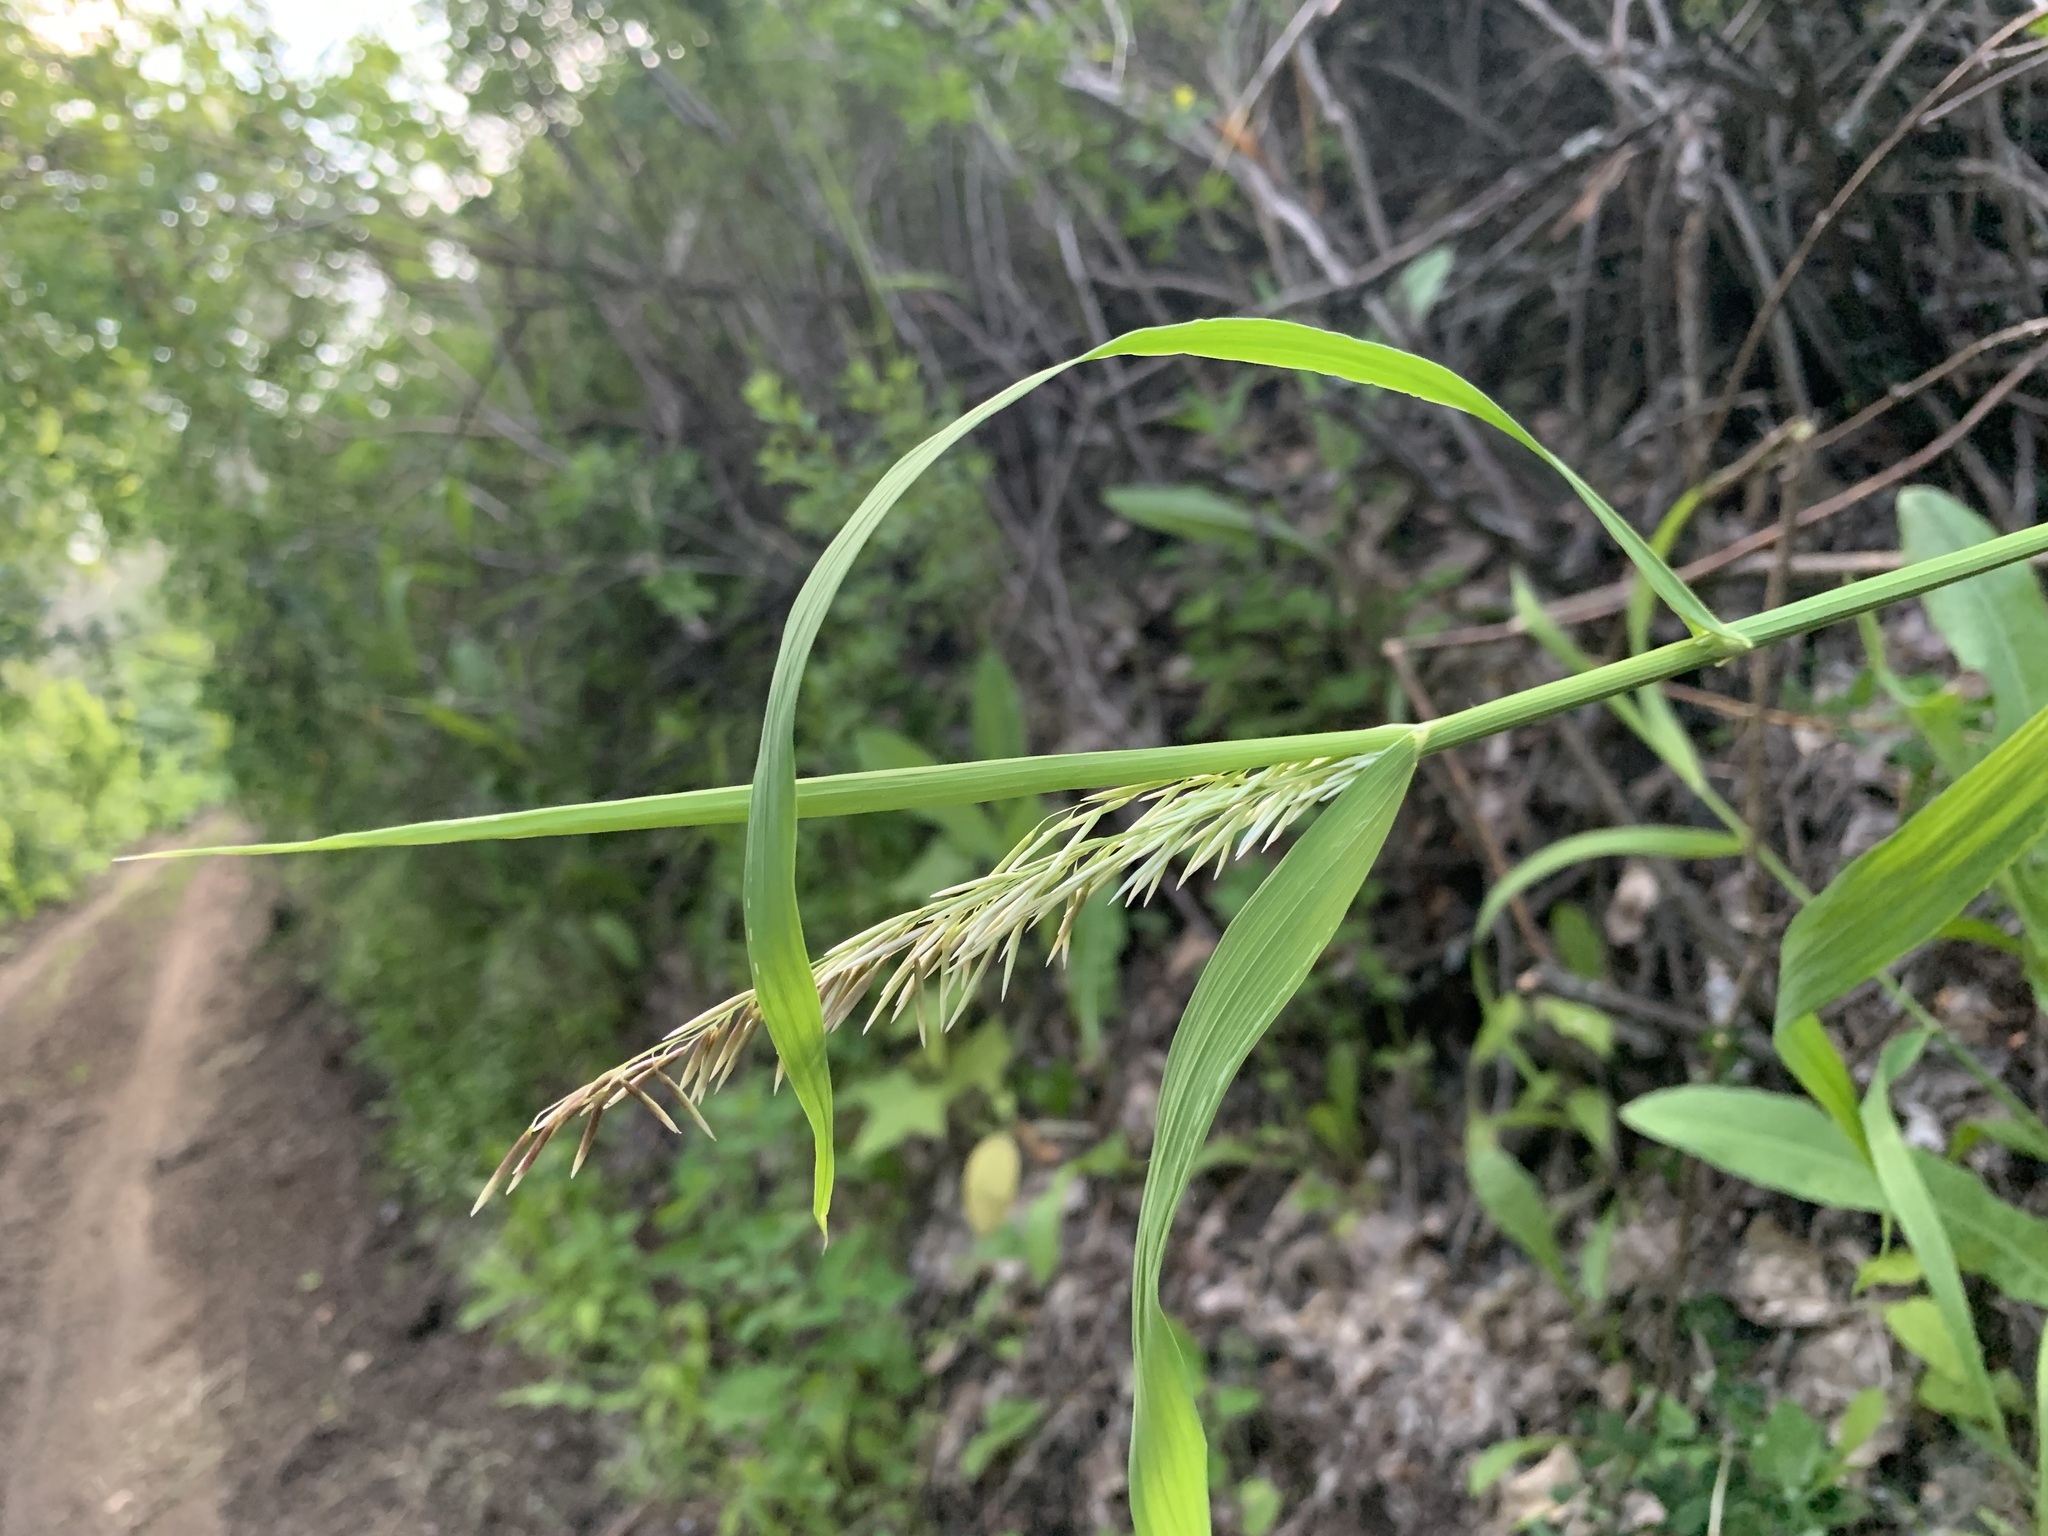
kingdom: Plantae
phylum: Tracheophyta
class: Liliopsida
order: Poales
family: Poaceae
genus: Melica
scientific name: Melica altissima
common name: Siberian melicgrass
